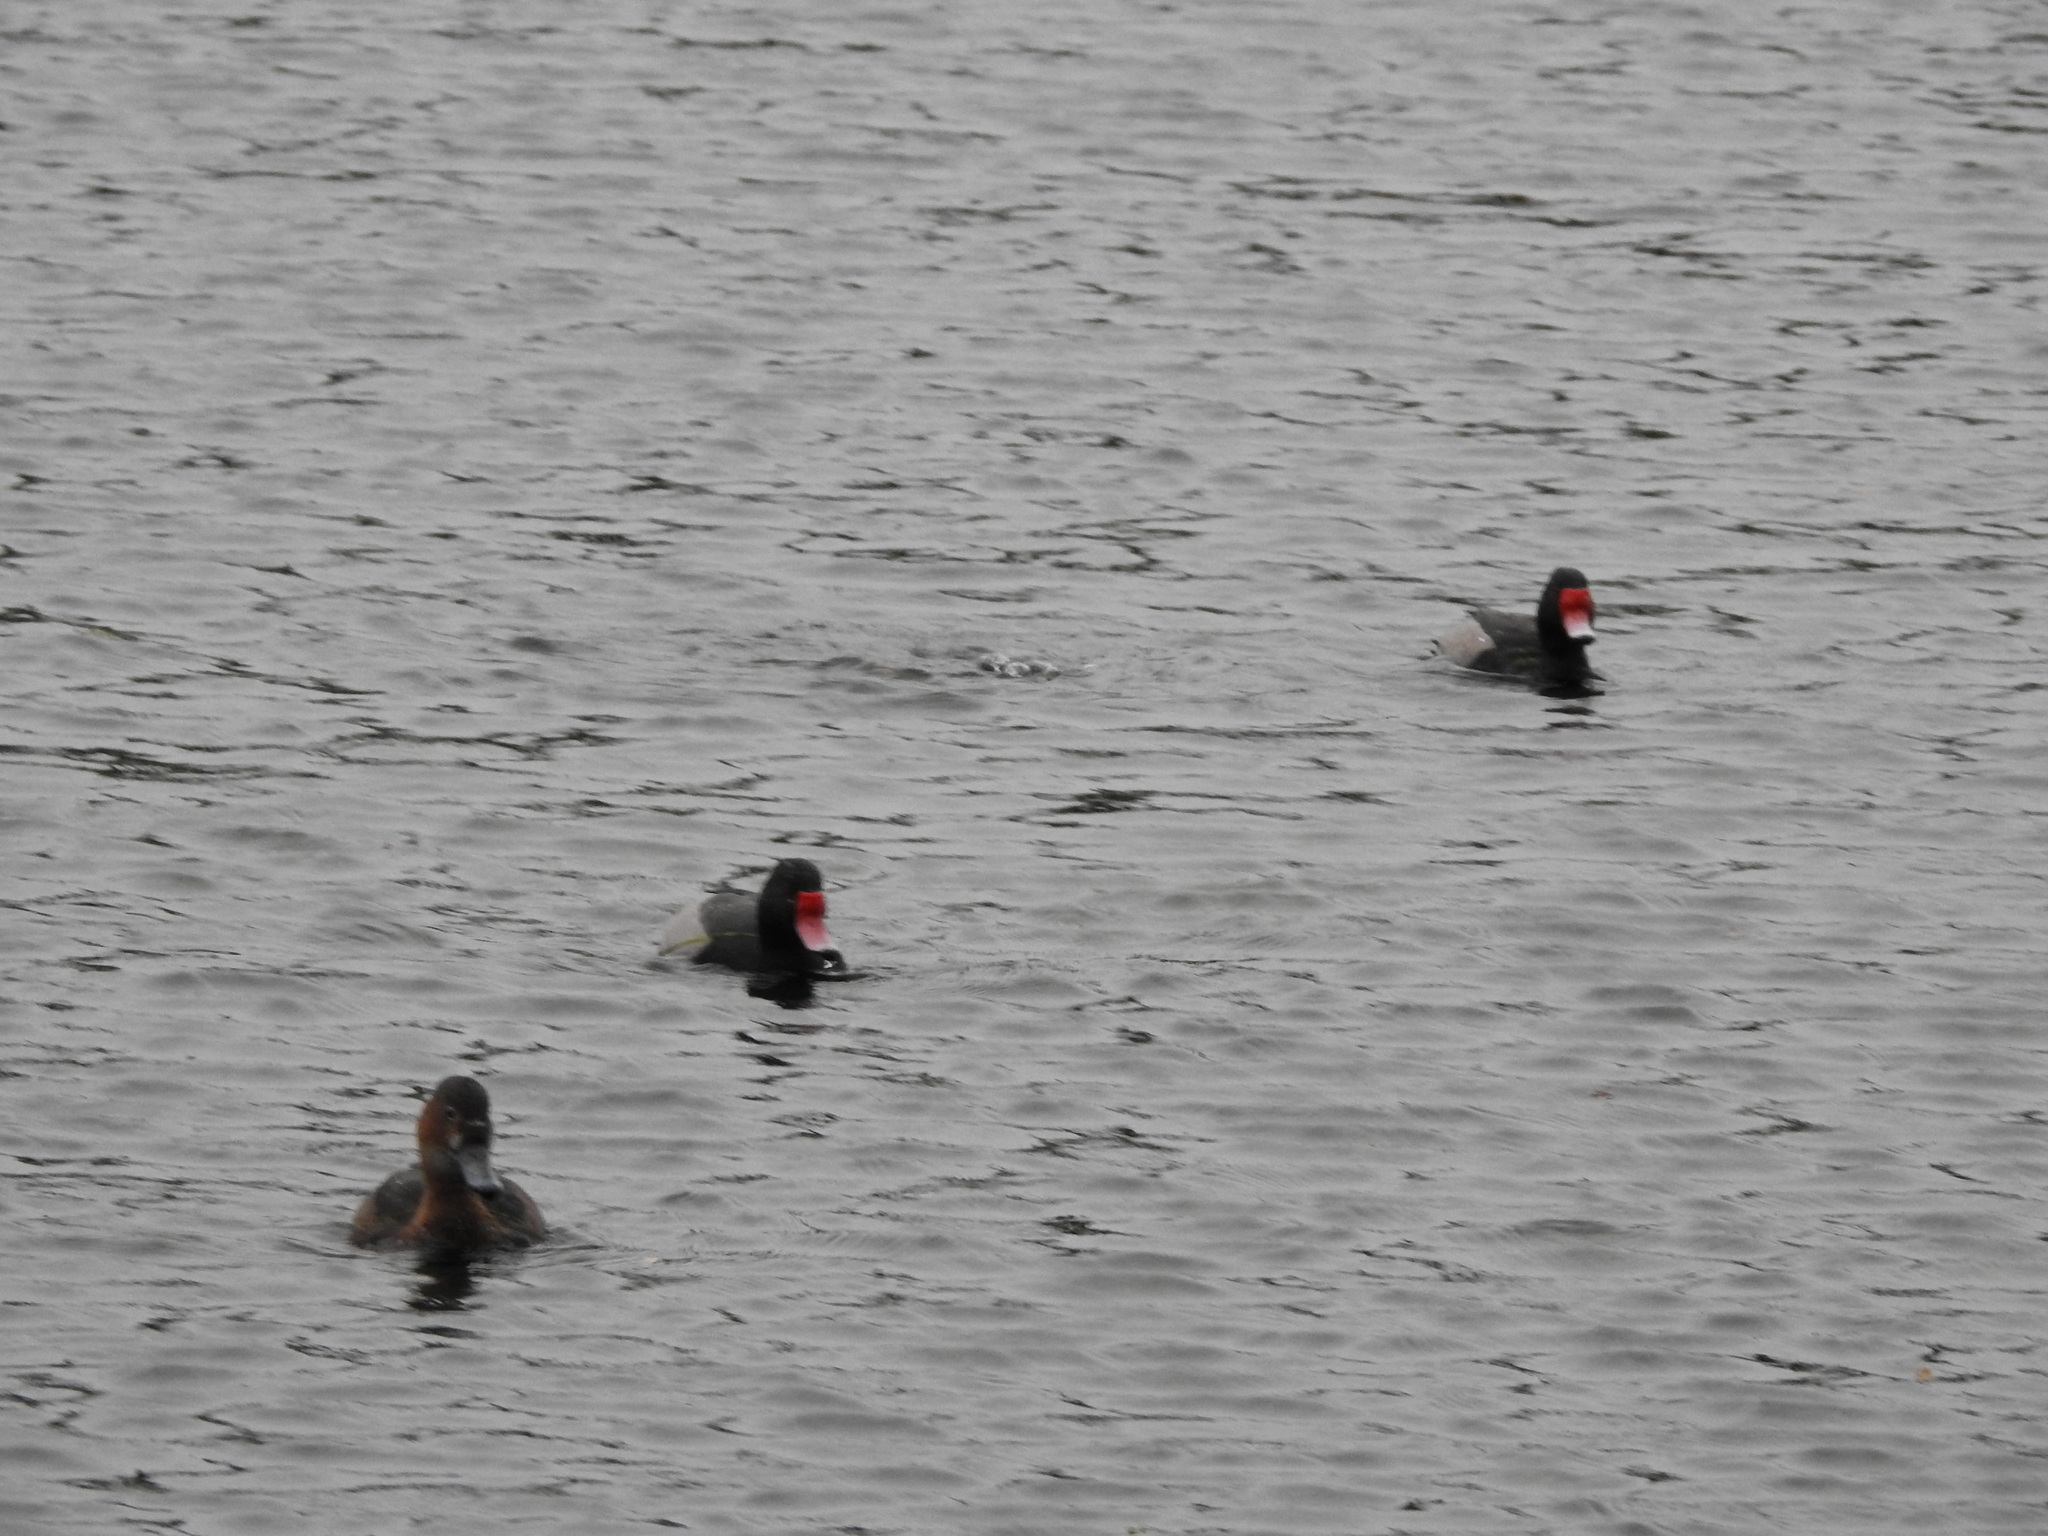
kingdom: Animalia
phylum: Chordata
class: Aves
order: Anseriformes
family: Anatidae
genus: Netta
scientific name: Netta peposaca
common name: Rosy-billed pochard
